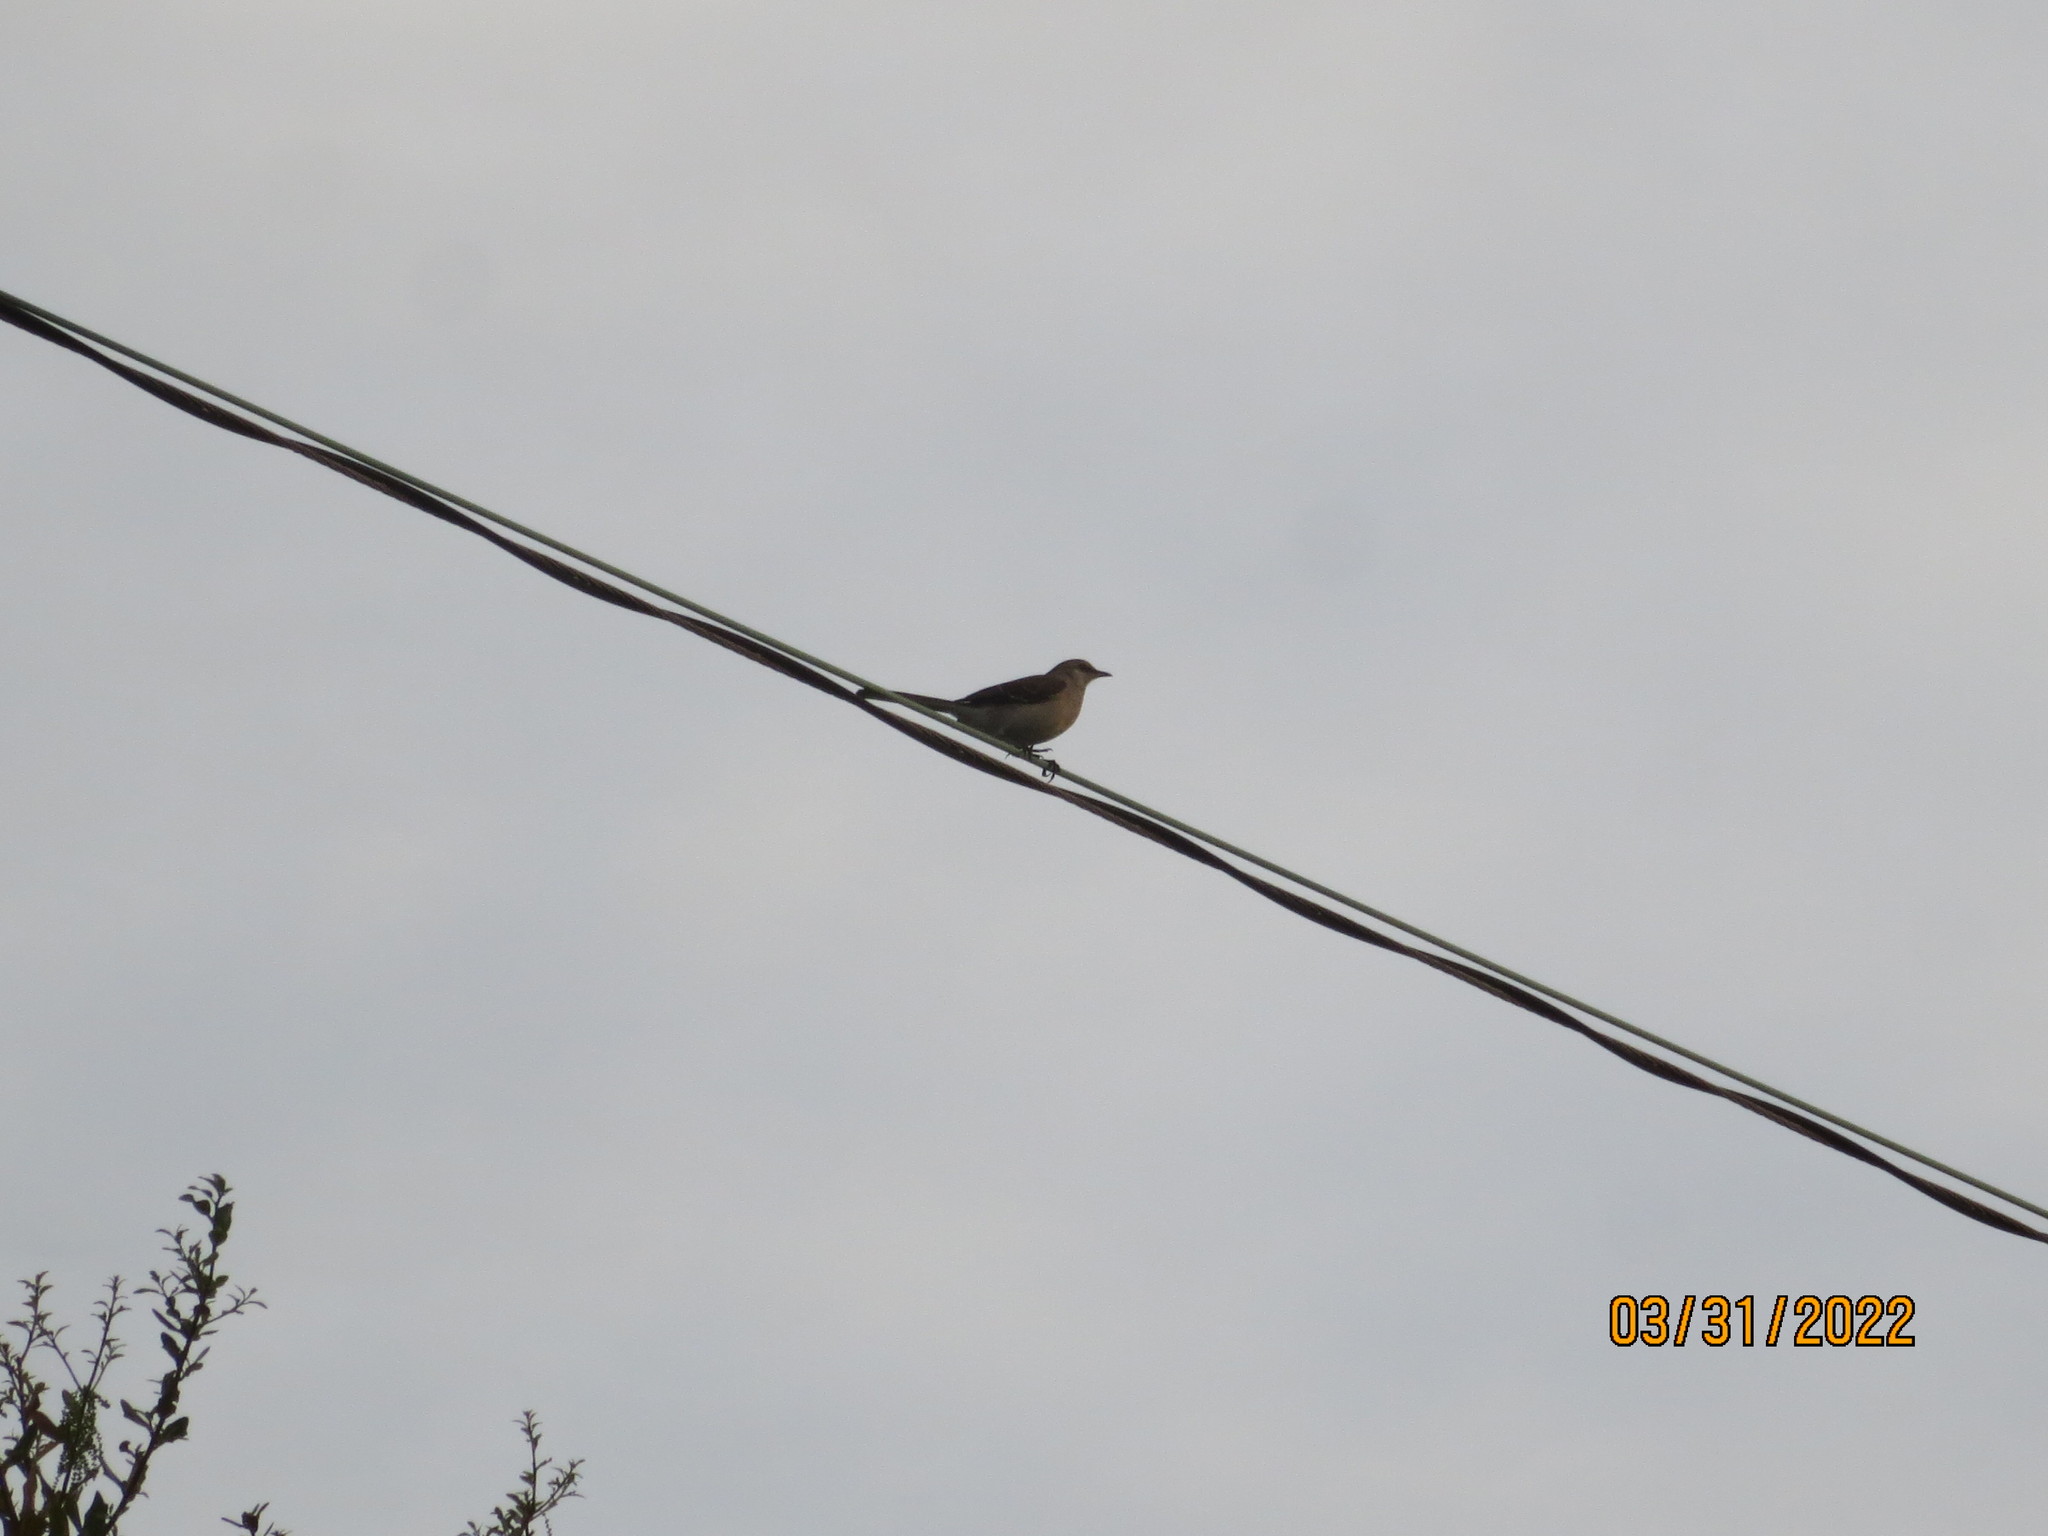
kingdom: Animalia
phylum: Chordata
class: Aves
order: Passeriformes
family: Mimidae
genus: Mimus
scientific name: Mimus polyglottos
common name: Northern mockingbird
